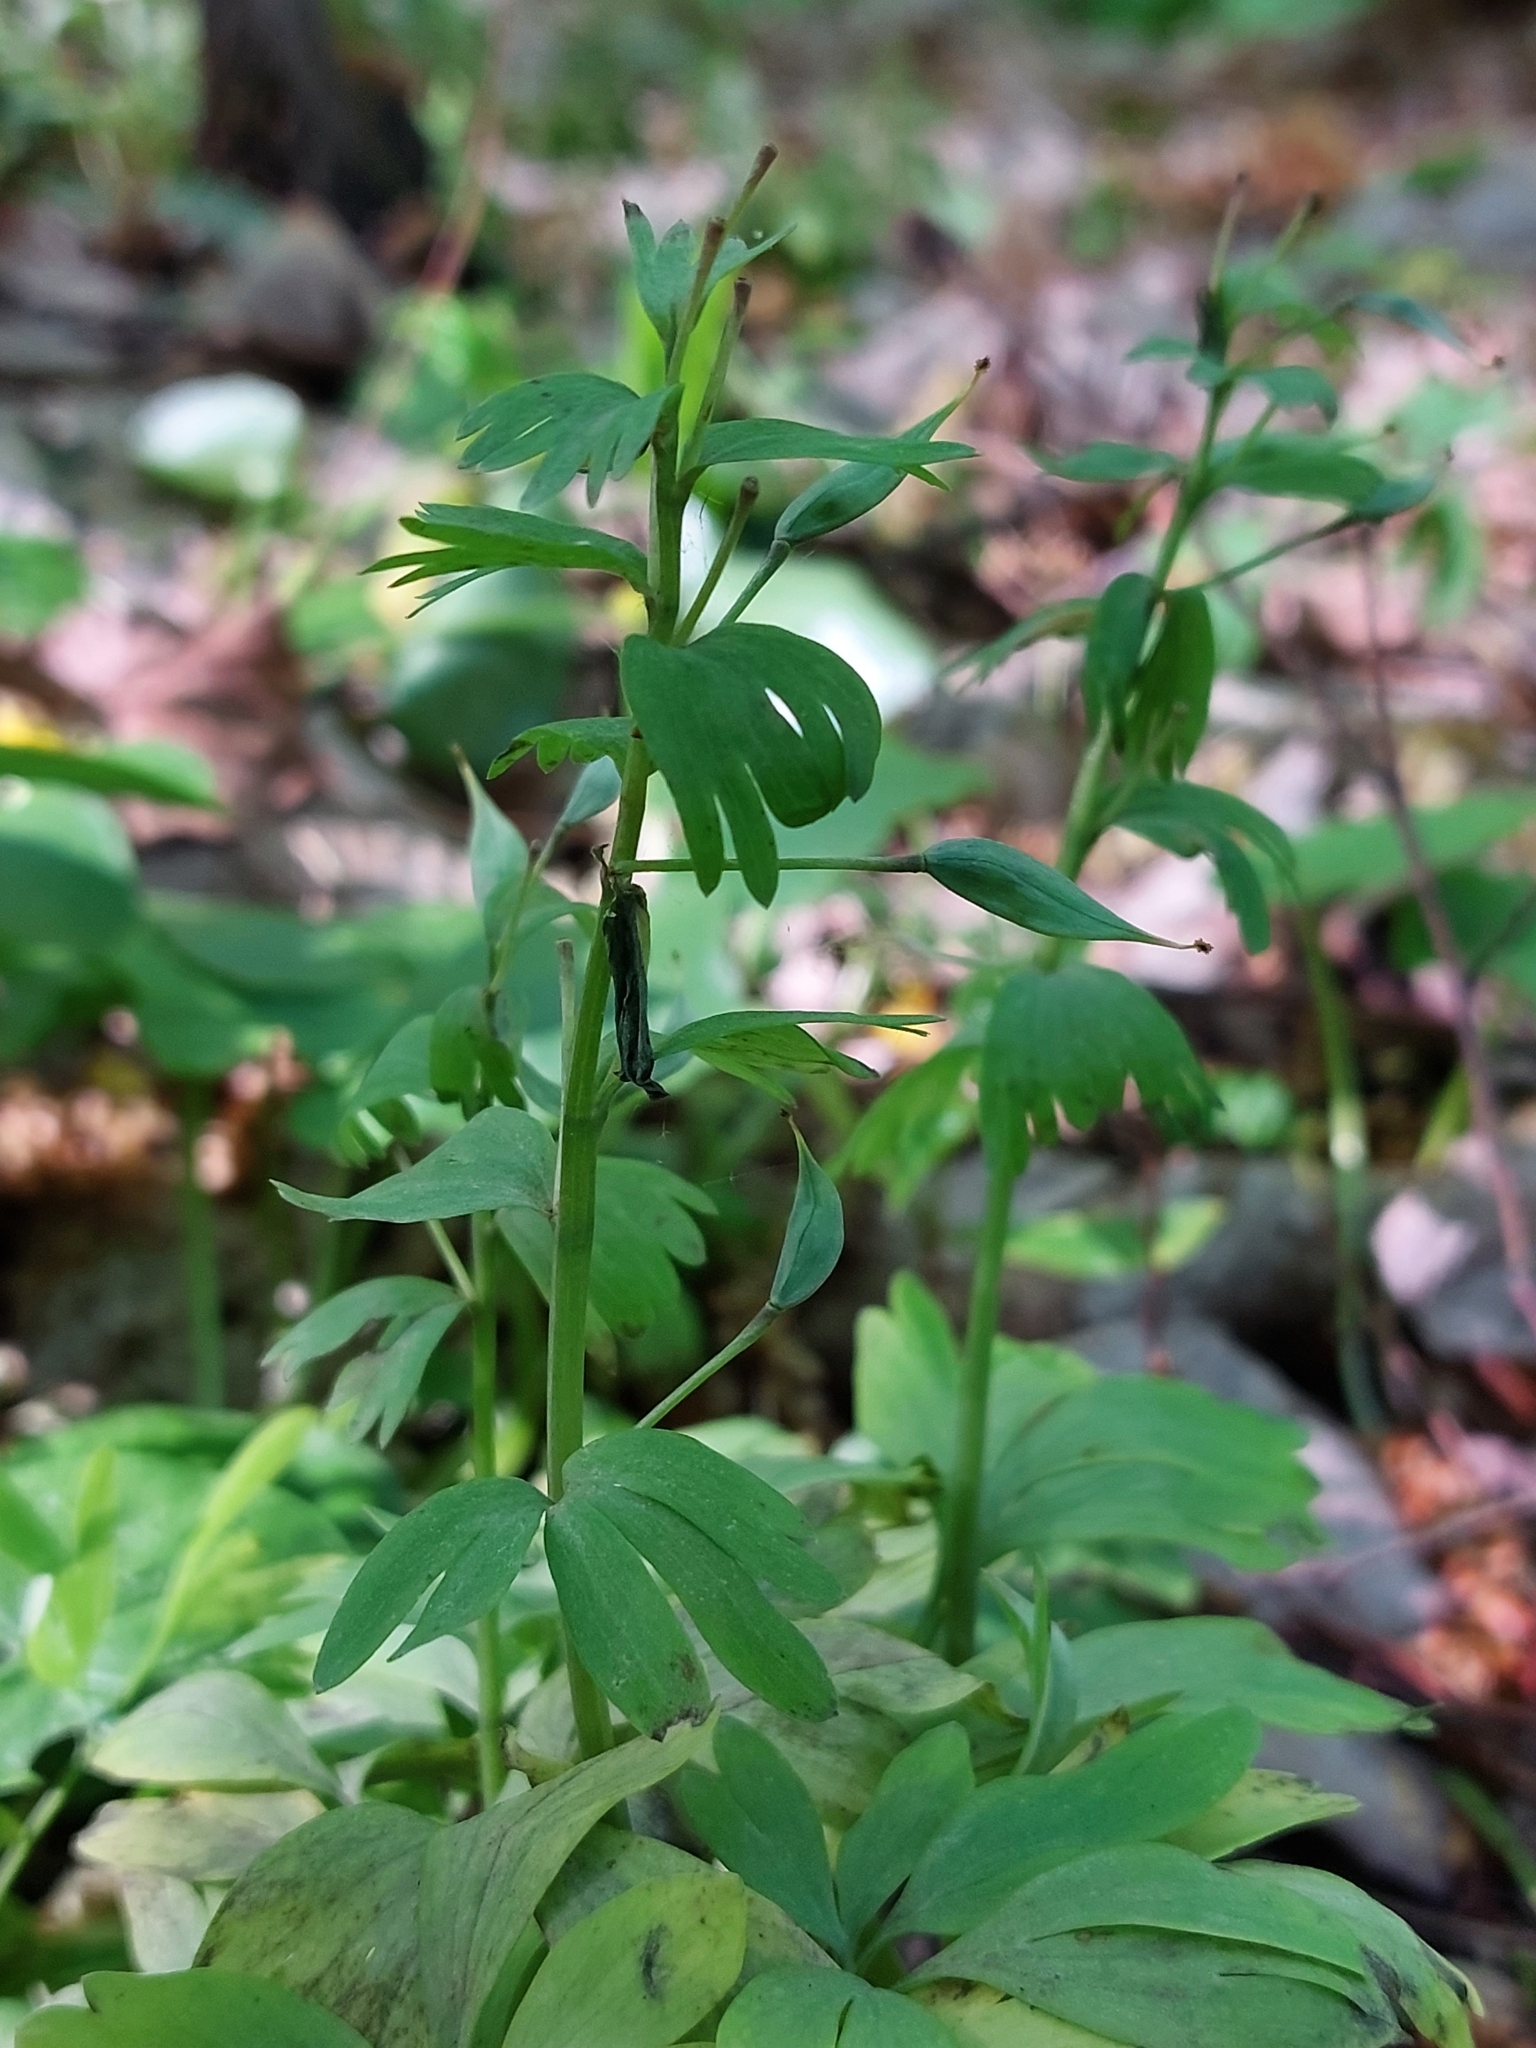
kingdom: Plantae
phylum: Tracheophyta
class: Magnoliopsida
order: Ranunculales
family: Papaveraceae
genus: Corydalis
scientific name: Corydalis solida
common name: Bird-in-a-bush
